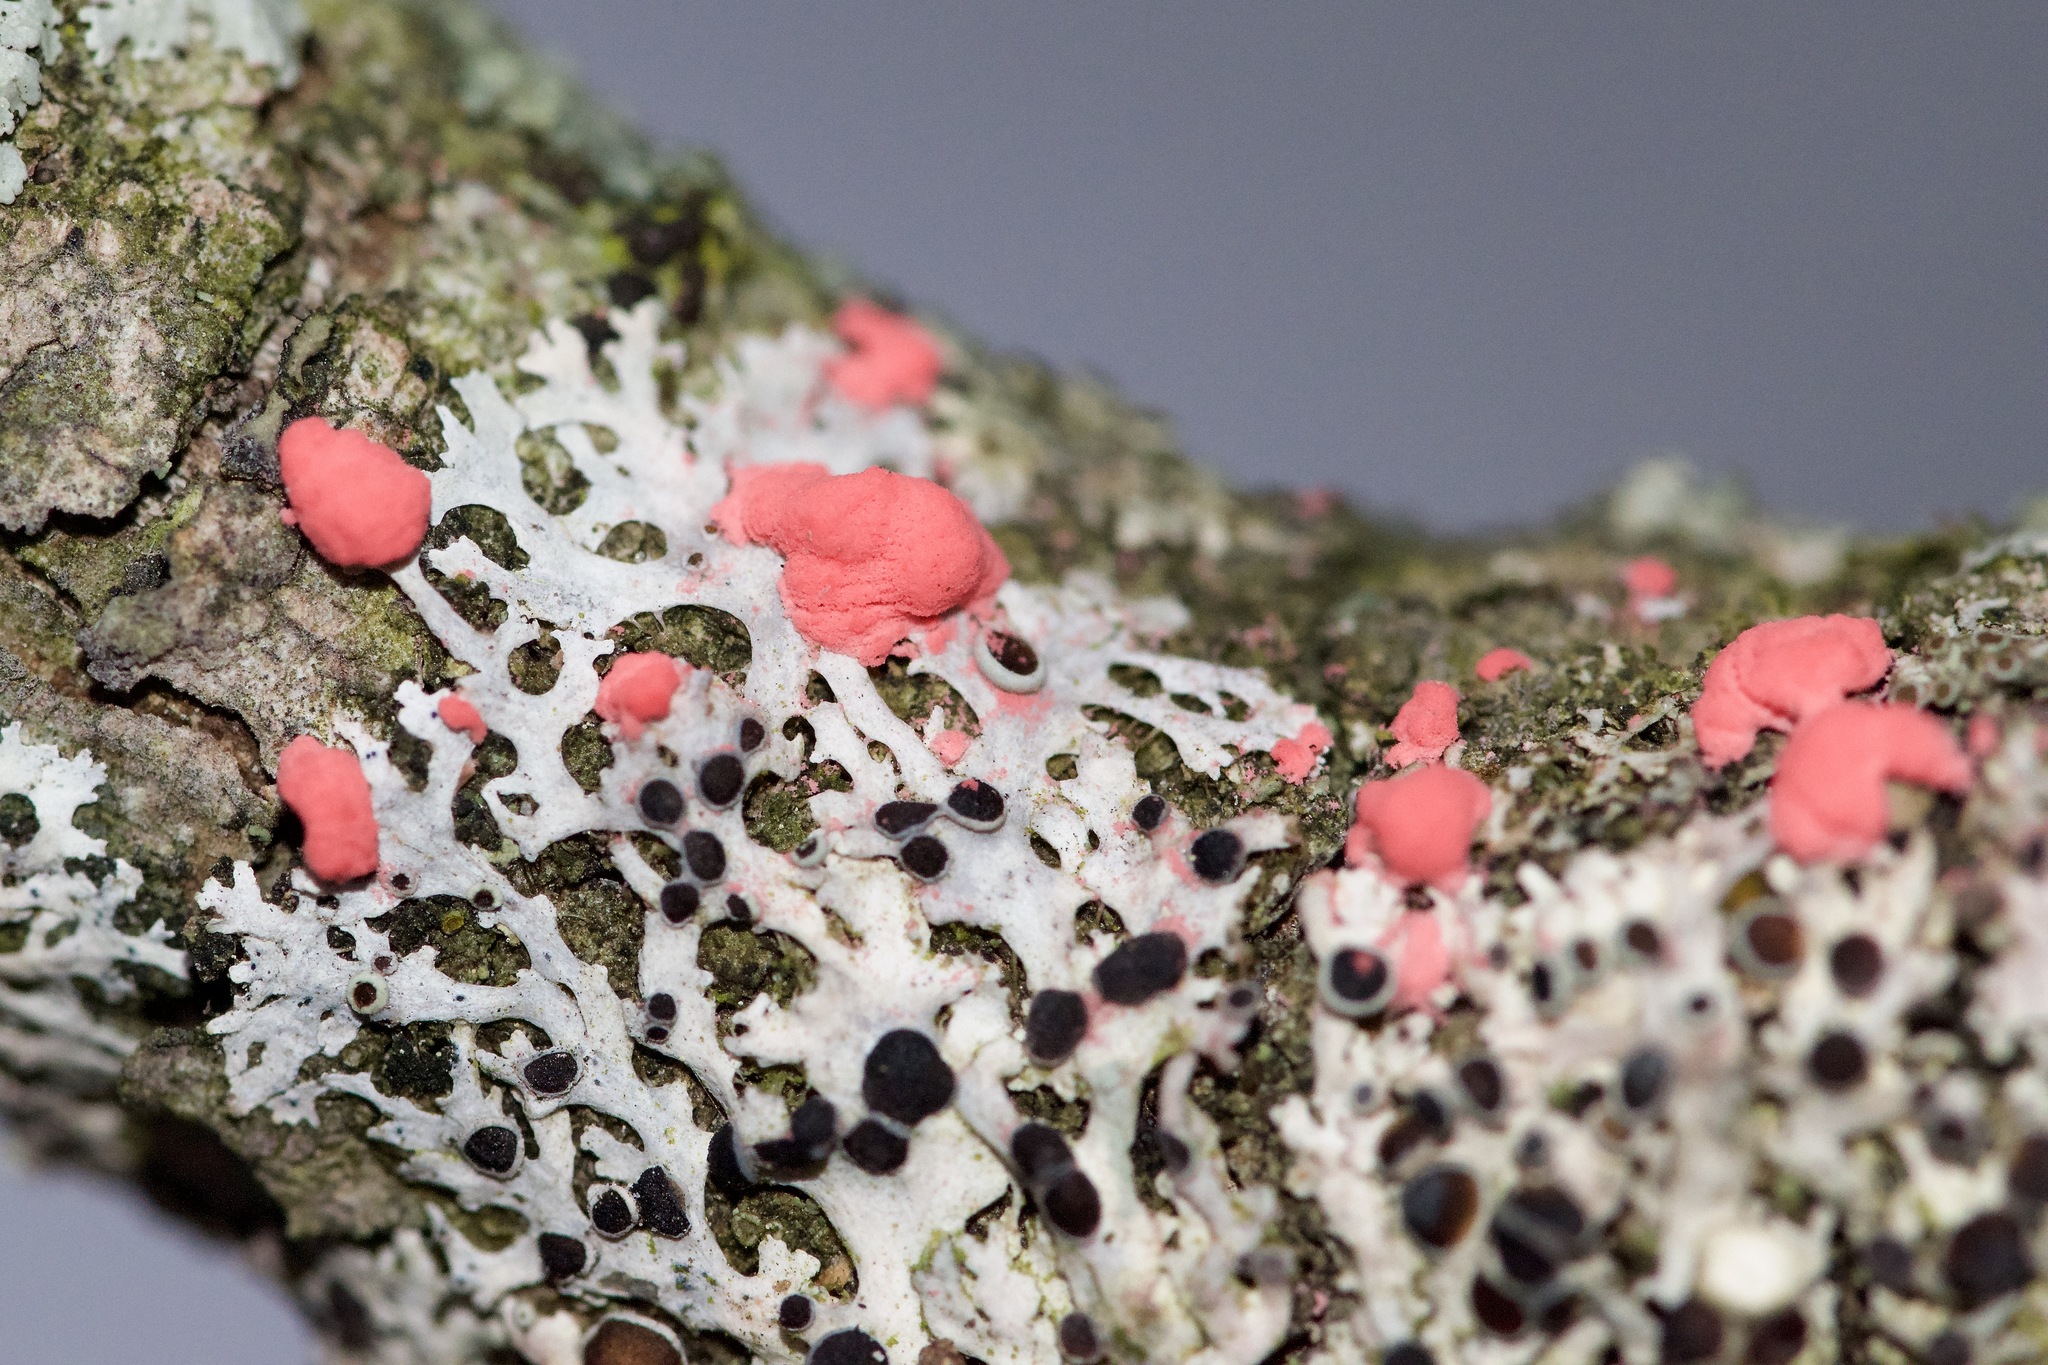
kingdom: Fungi
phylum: Ascomycota
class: Sordariomycetes
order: Hypocreales
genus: Illosporiopsis
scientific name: Illosporiopsis christiansenii
